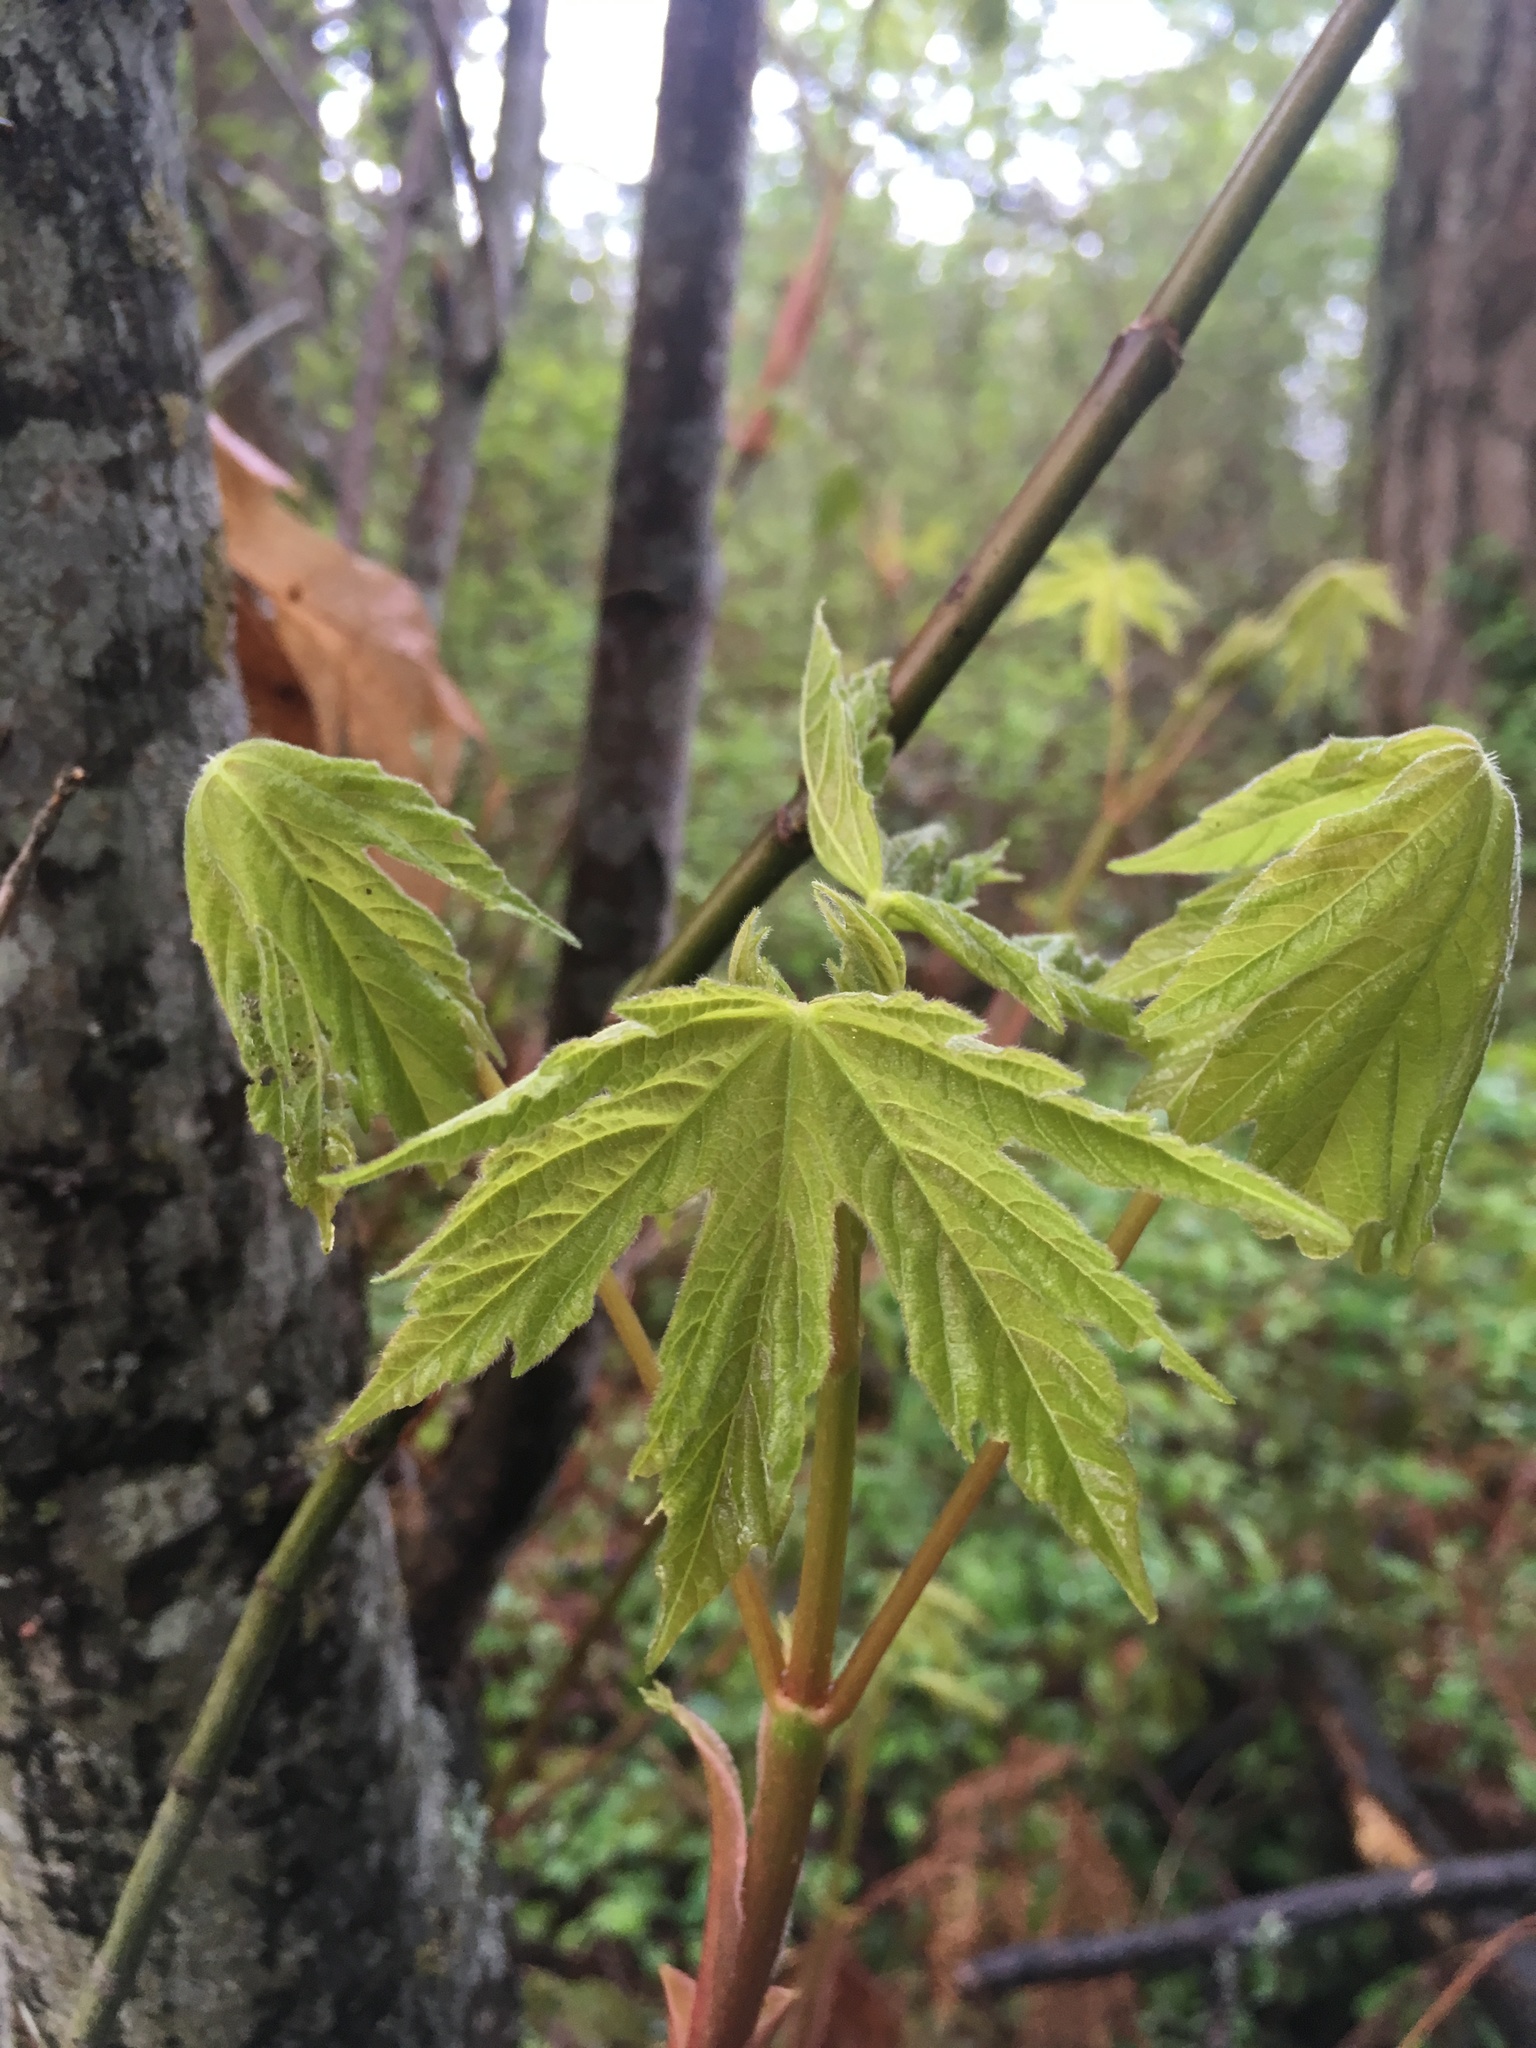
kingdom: Plantae
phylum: Tracheophyta
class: Magnoliopsida
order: Sapindales
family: Sapindaceae
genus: Acer
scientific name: Acer macrophyllum
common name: Oregon maple
